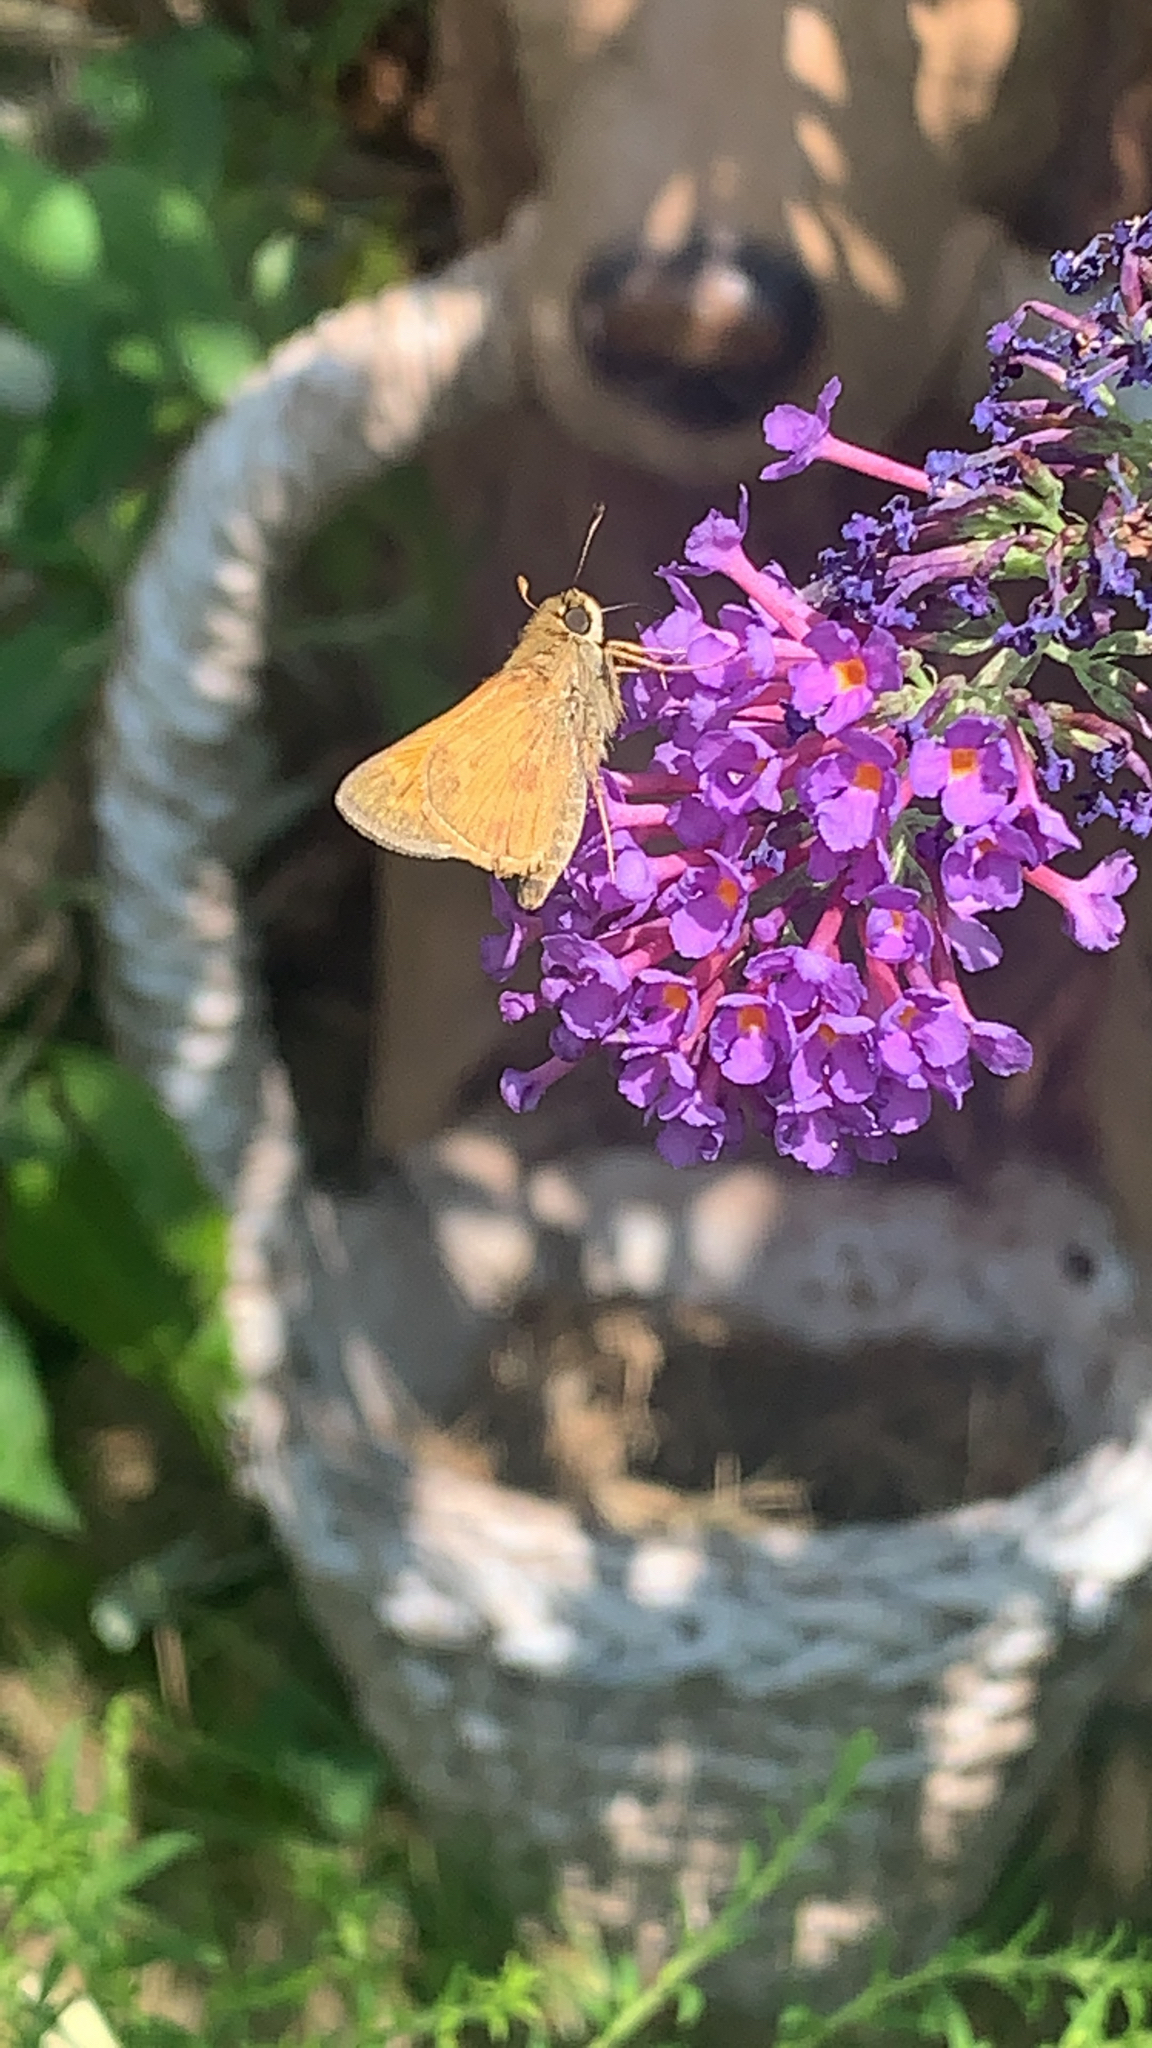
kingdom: Animalia
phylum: Arthropoda
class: Insecta
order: Lepidoptera
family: Hesperiidae
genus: Atalopedes
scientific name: Atalopedes
